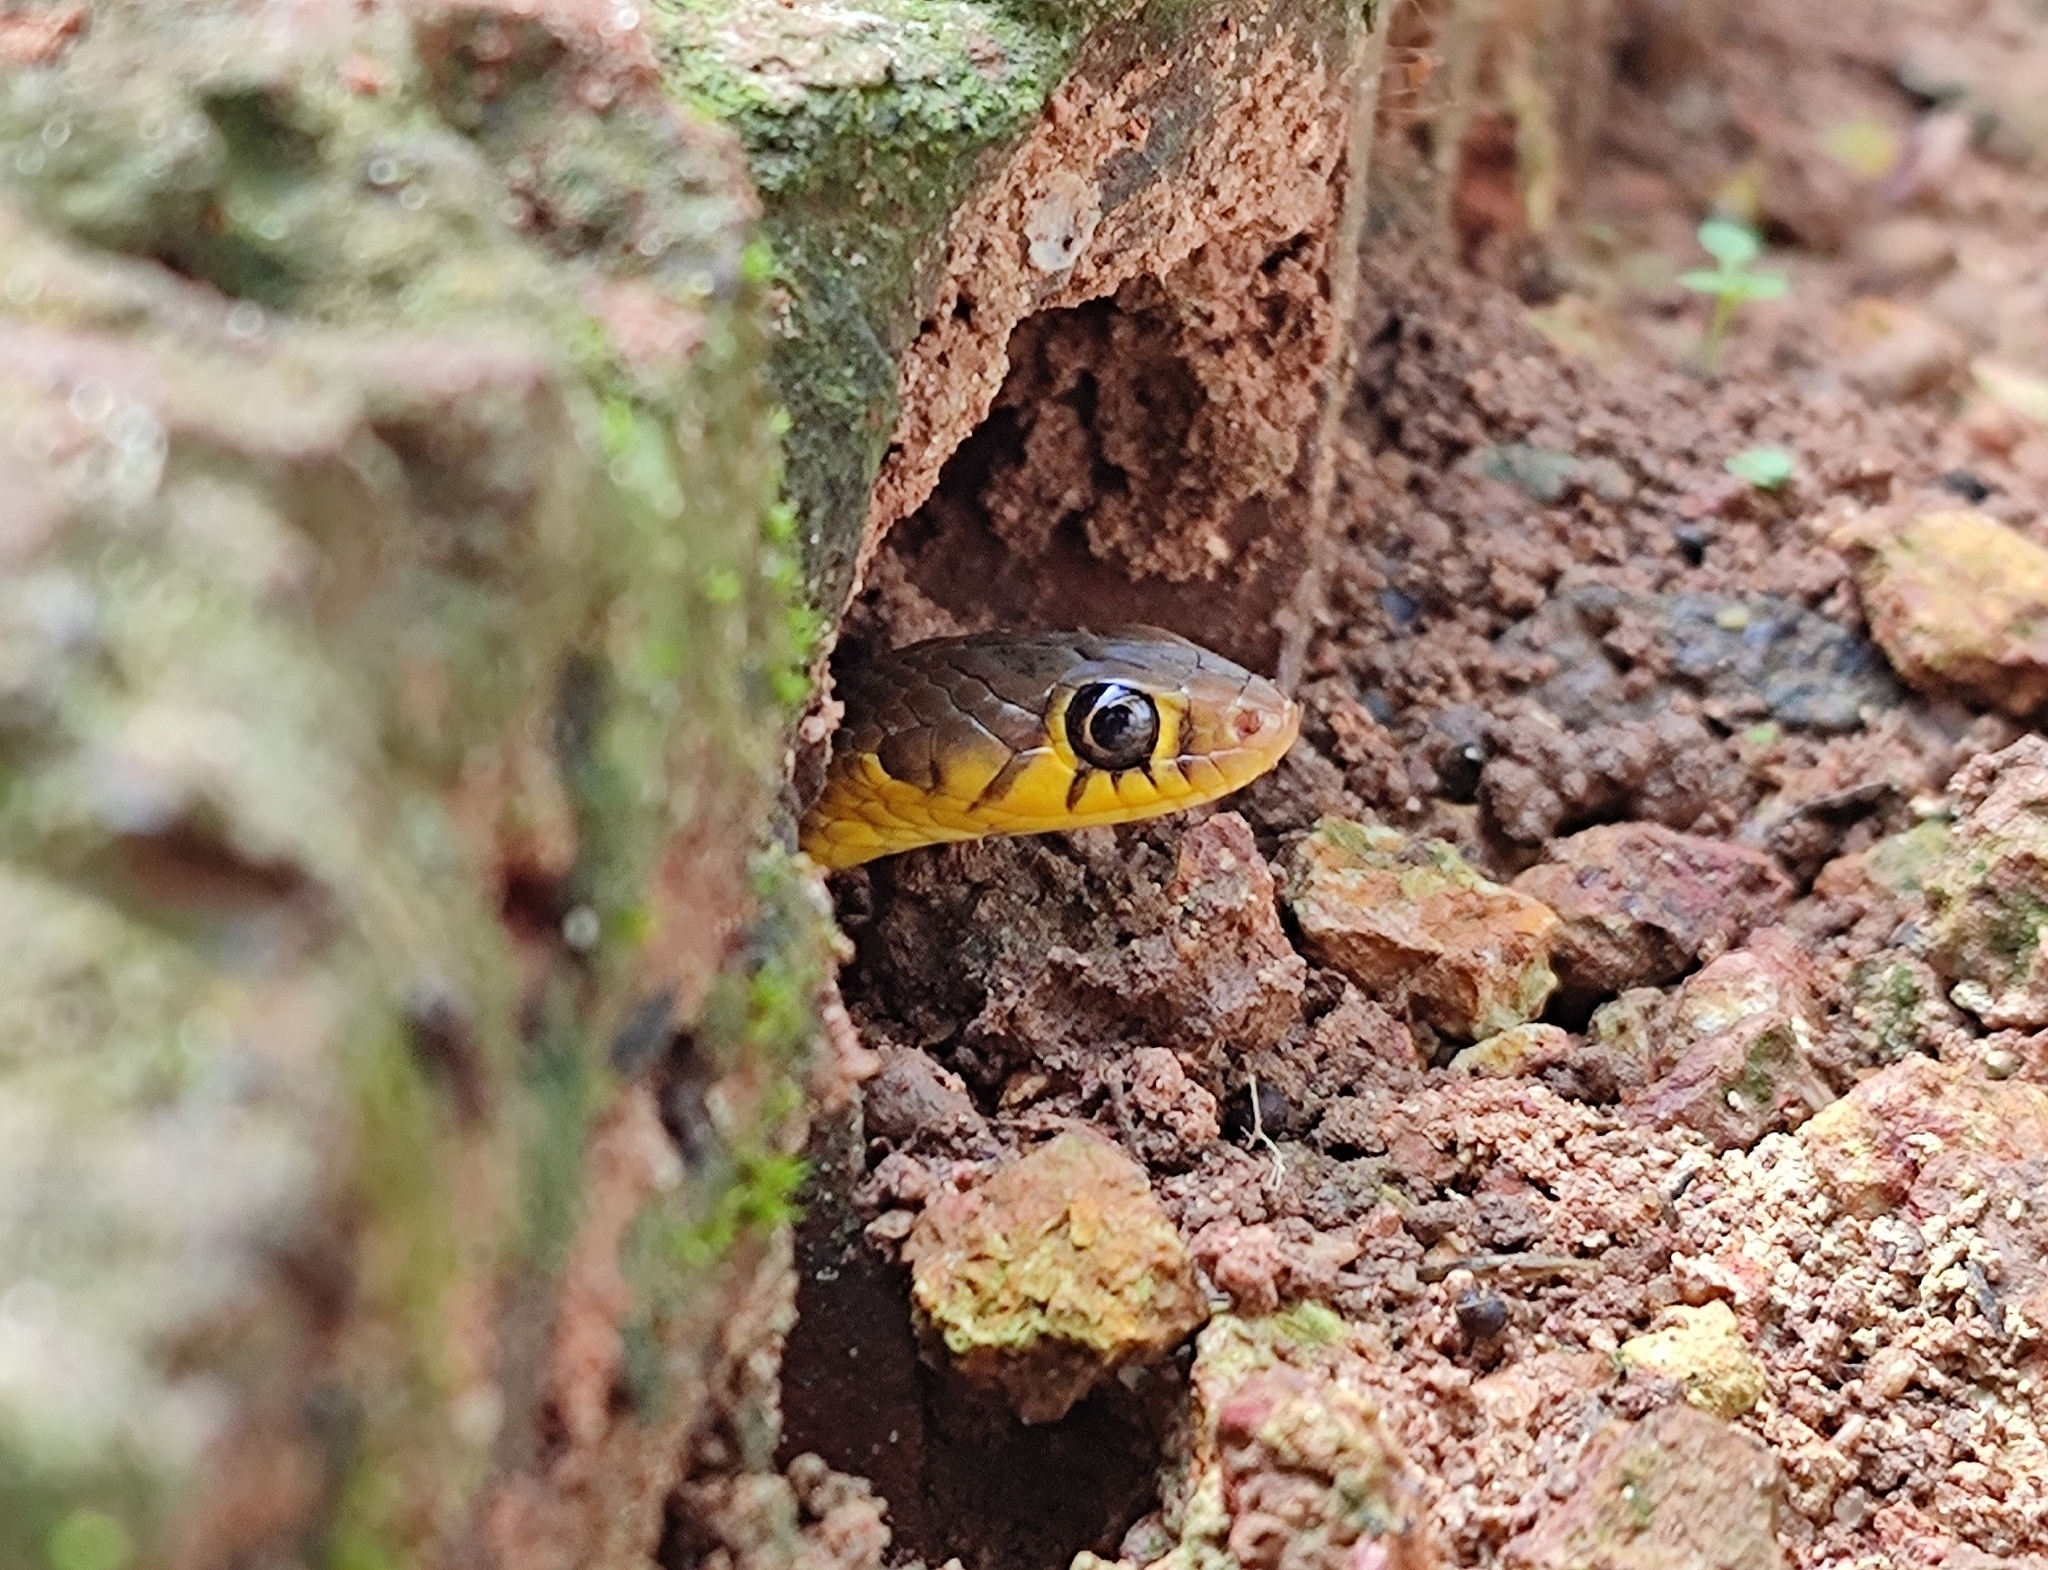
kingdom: Animalia
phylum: Chordata
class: Squamata
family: Colubridae
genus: Amphiesma
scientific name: Amphiesma stolatum
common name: Buff striped keelback
